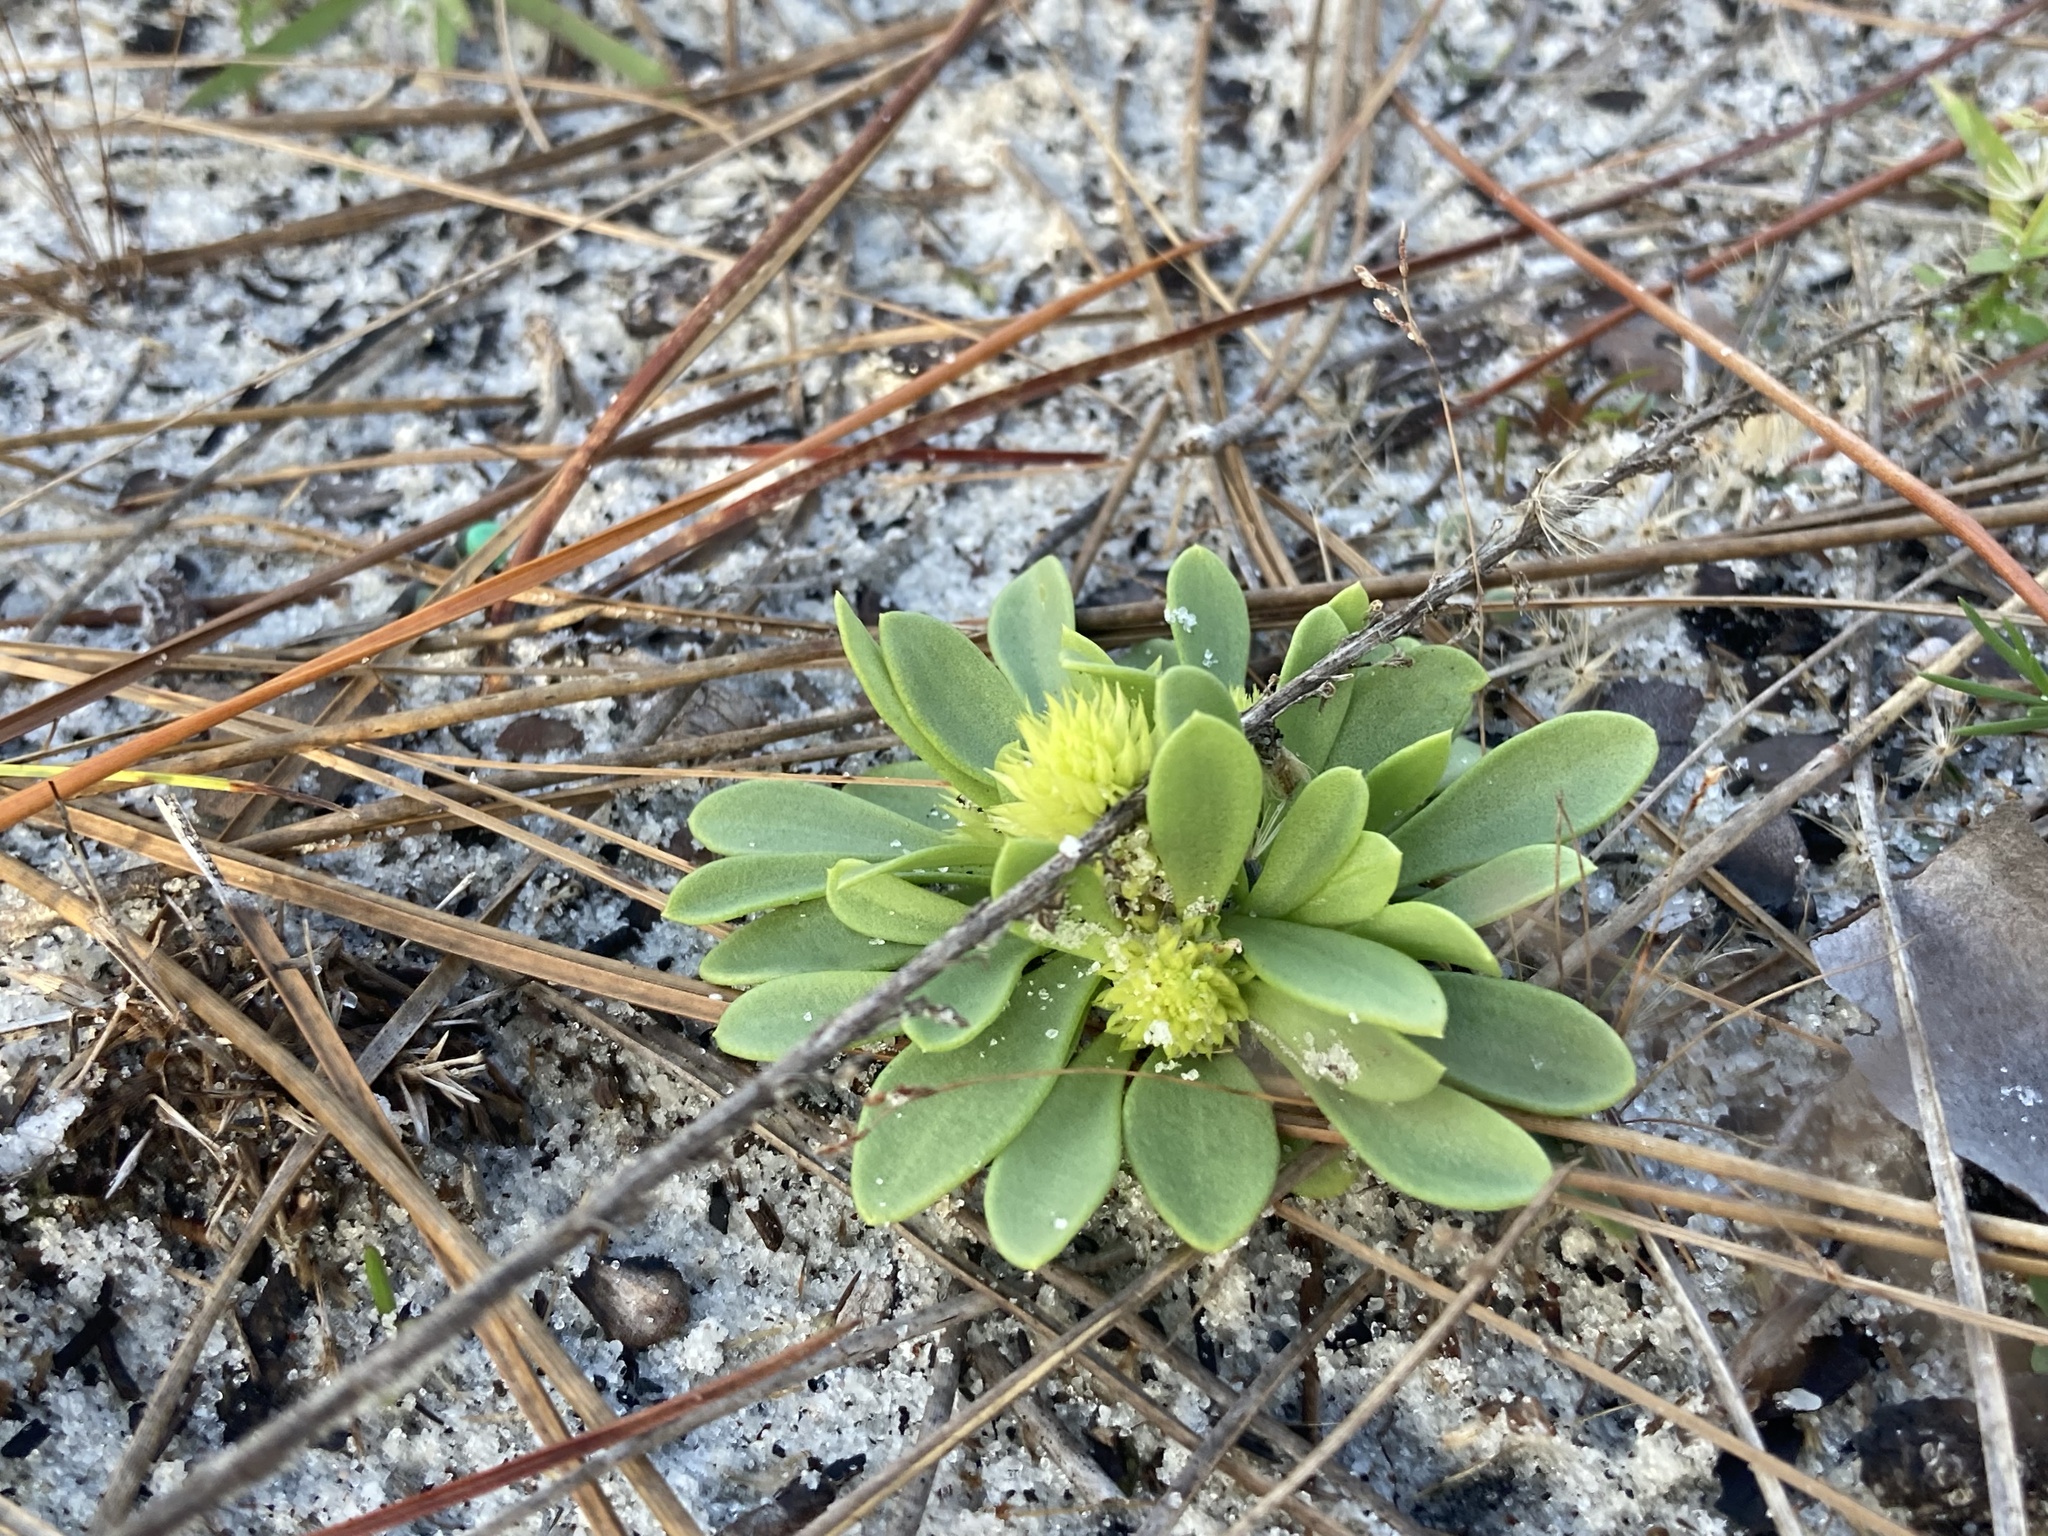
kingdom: Plantae
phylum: Tracheophyta
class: Magnoliopsida
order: Fabales
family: Polygalaceae
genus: Polygala
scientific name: Polygala nana
